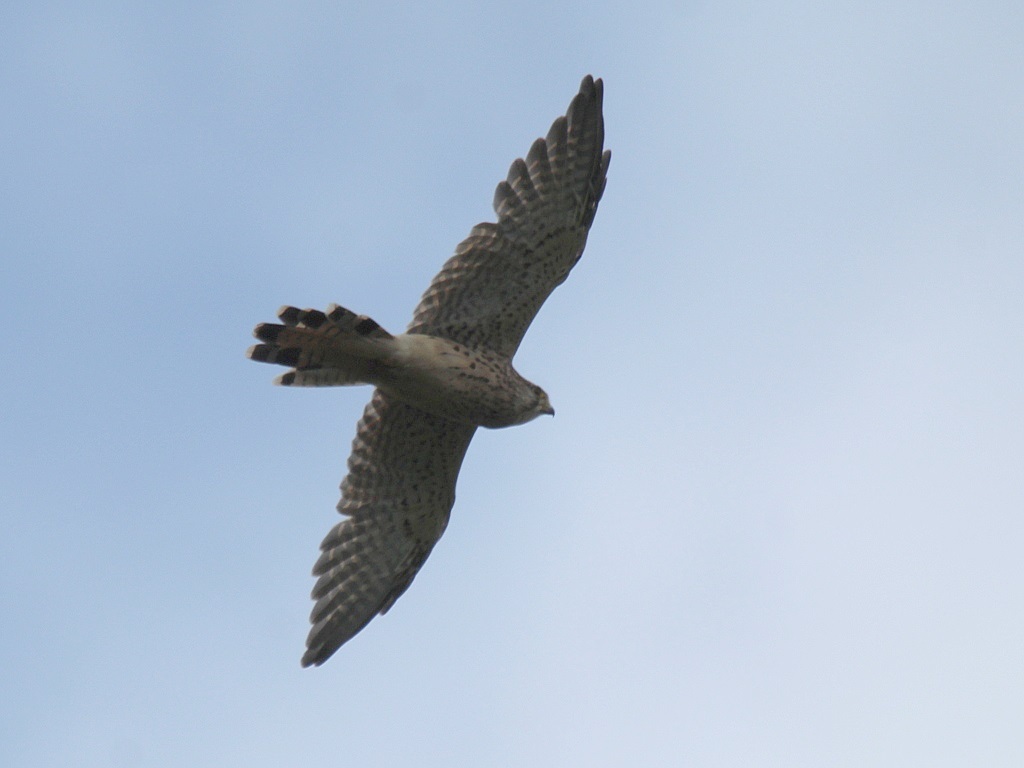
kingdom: Animalia
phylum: Chordata
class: Aves
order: Falconiformes
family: Falconidae
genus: Falco
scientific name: Falco tinnunculus
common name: Common kestrel
